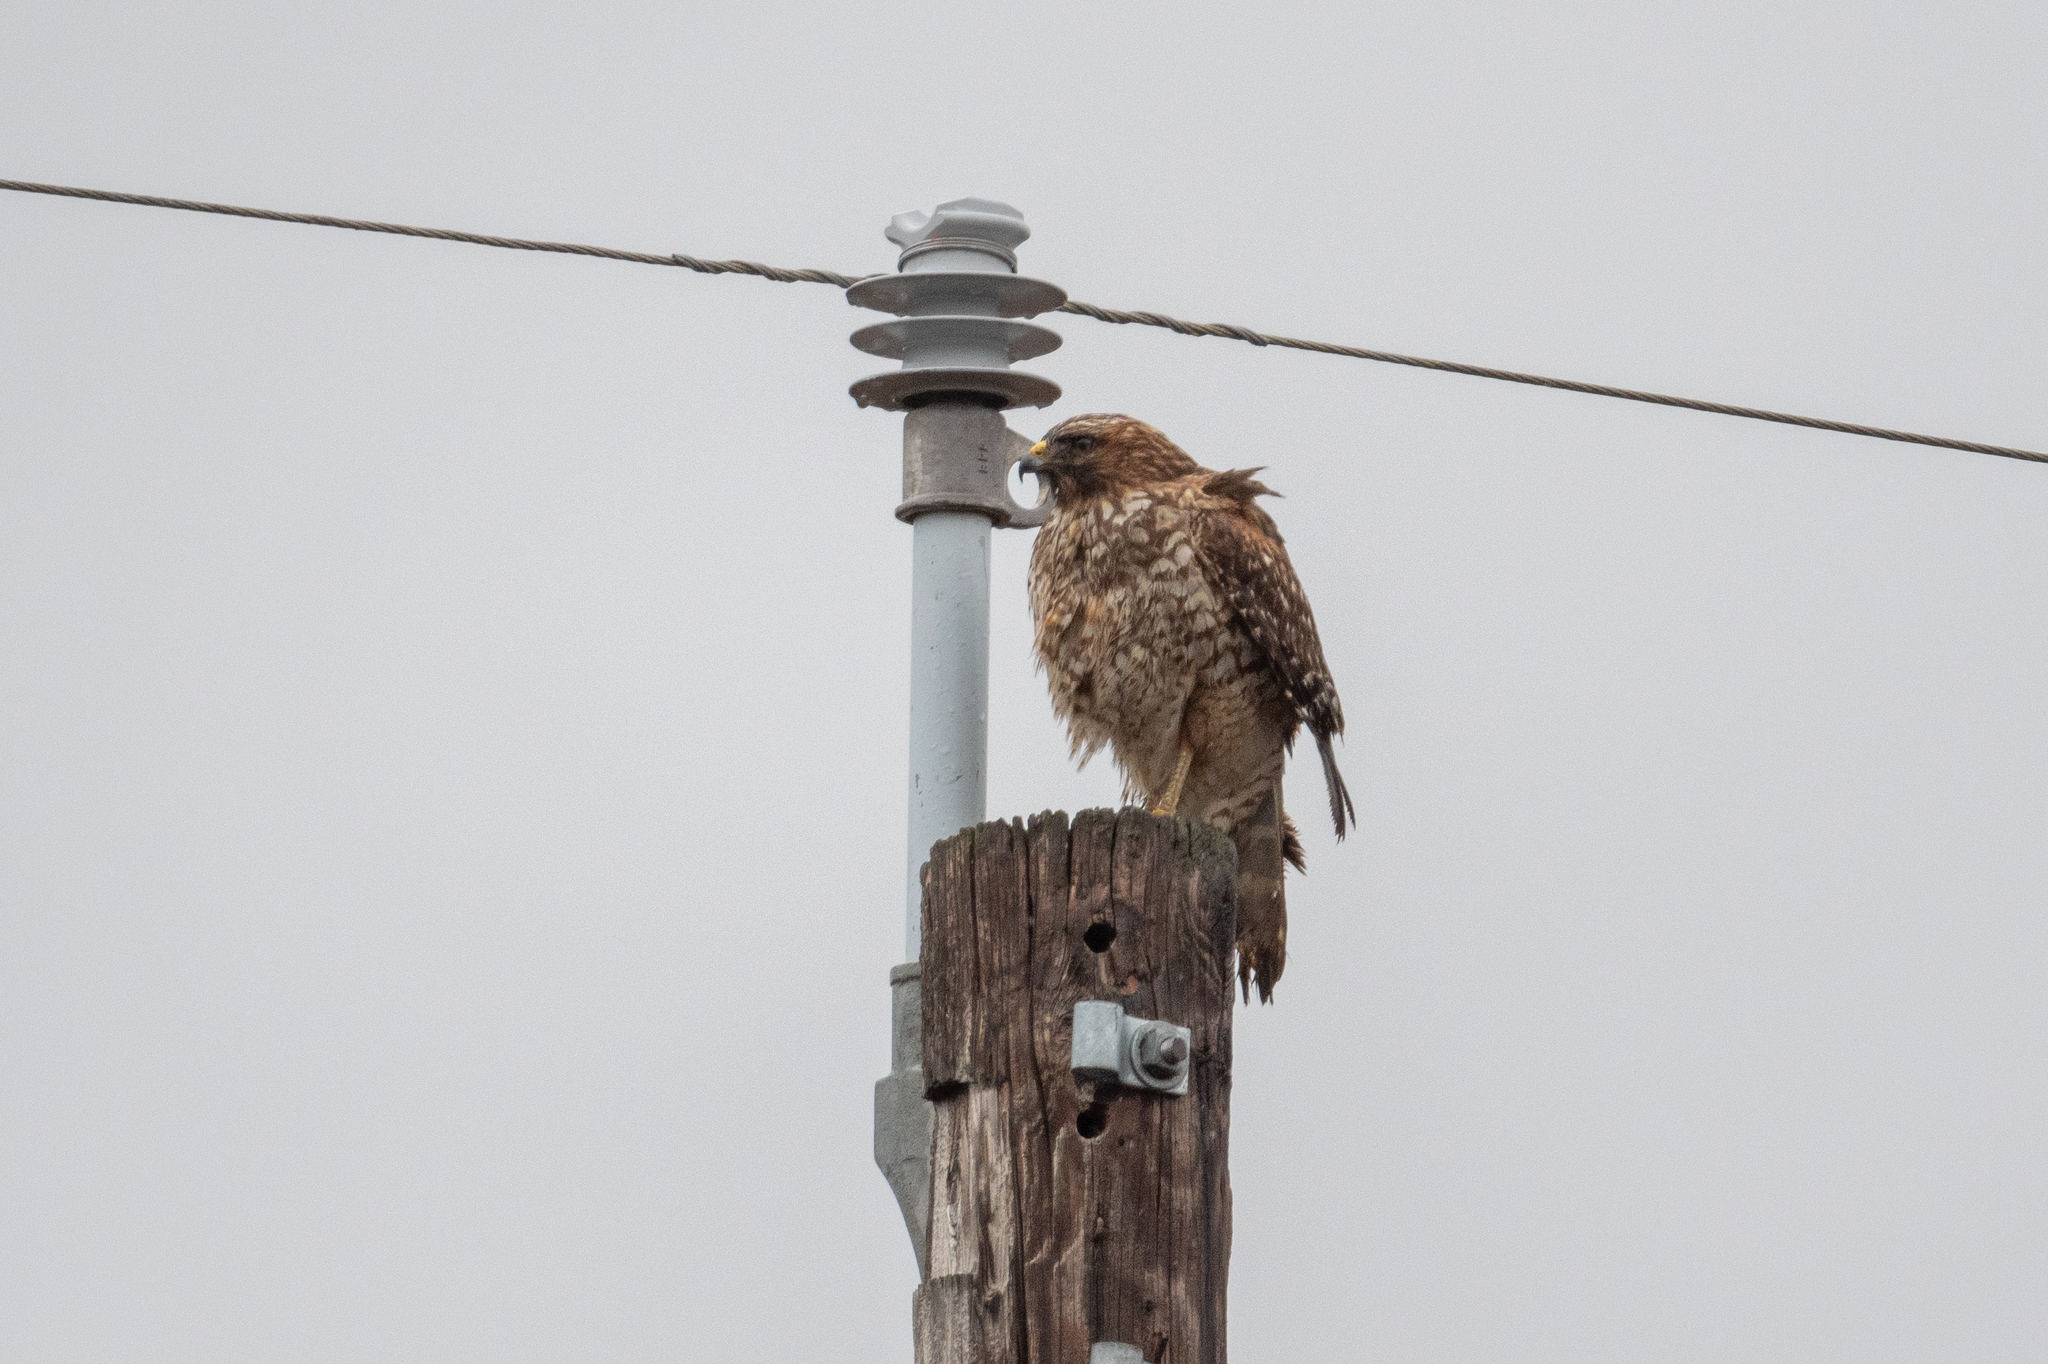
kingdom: Animalia
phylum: Chordata
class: Aves
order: Accipitriformes
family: Accipitridae
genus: Buteo
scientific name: Buteo lineatus
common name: Red-shouldered hawk
